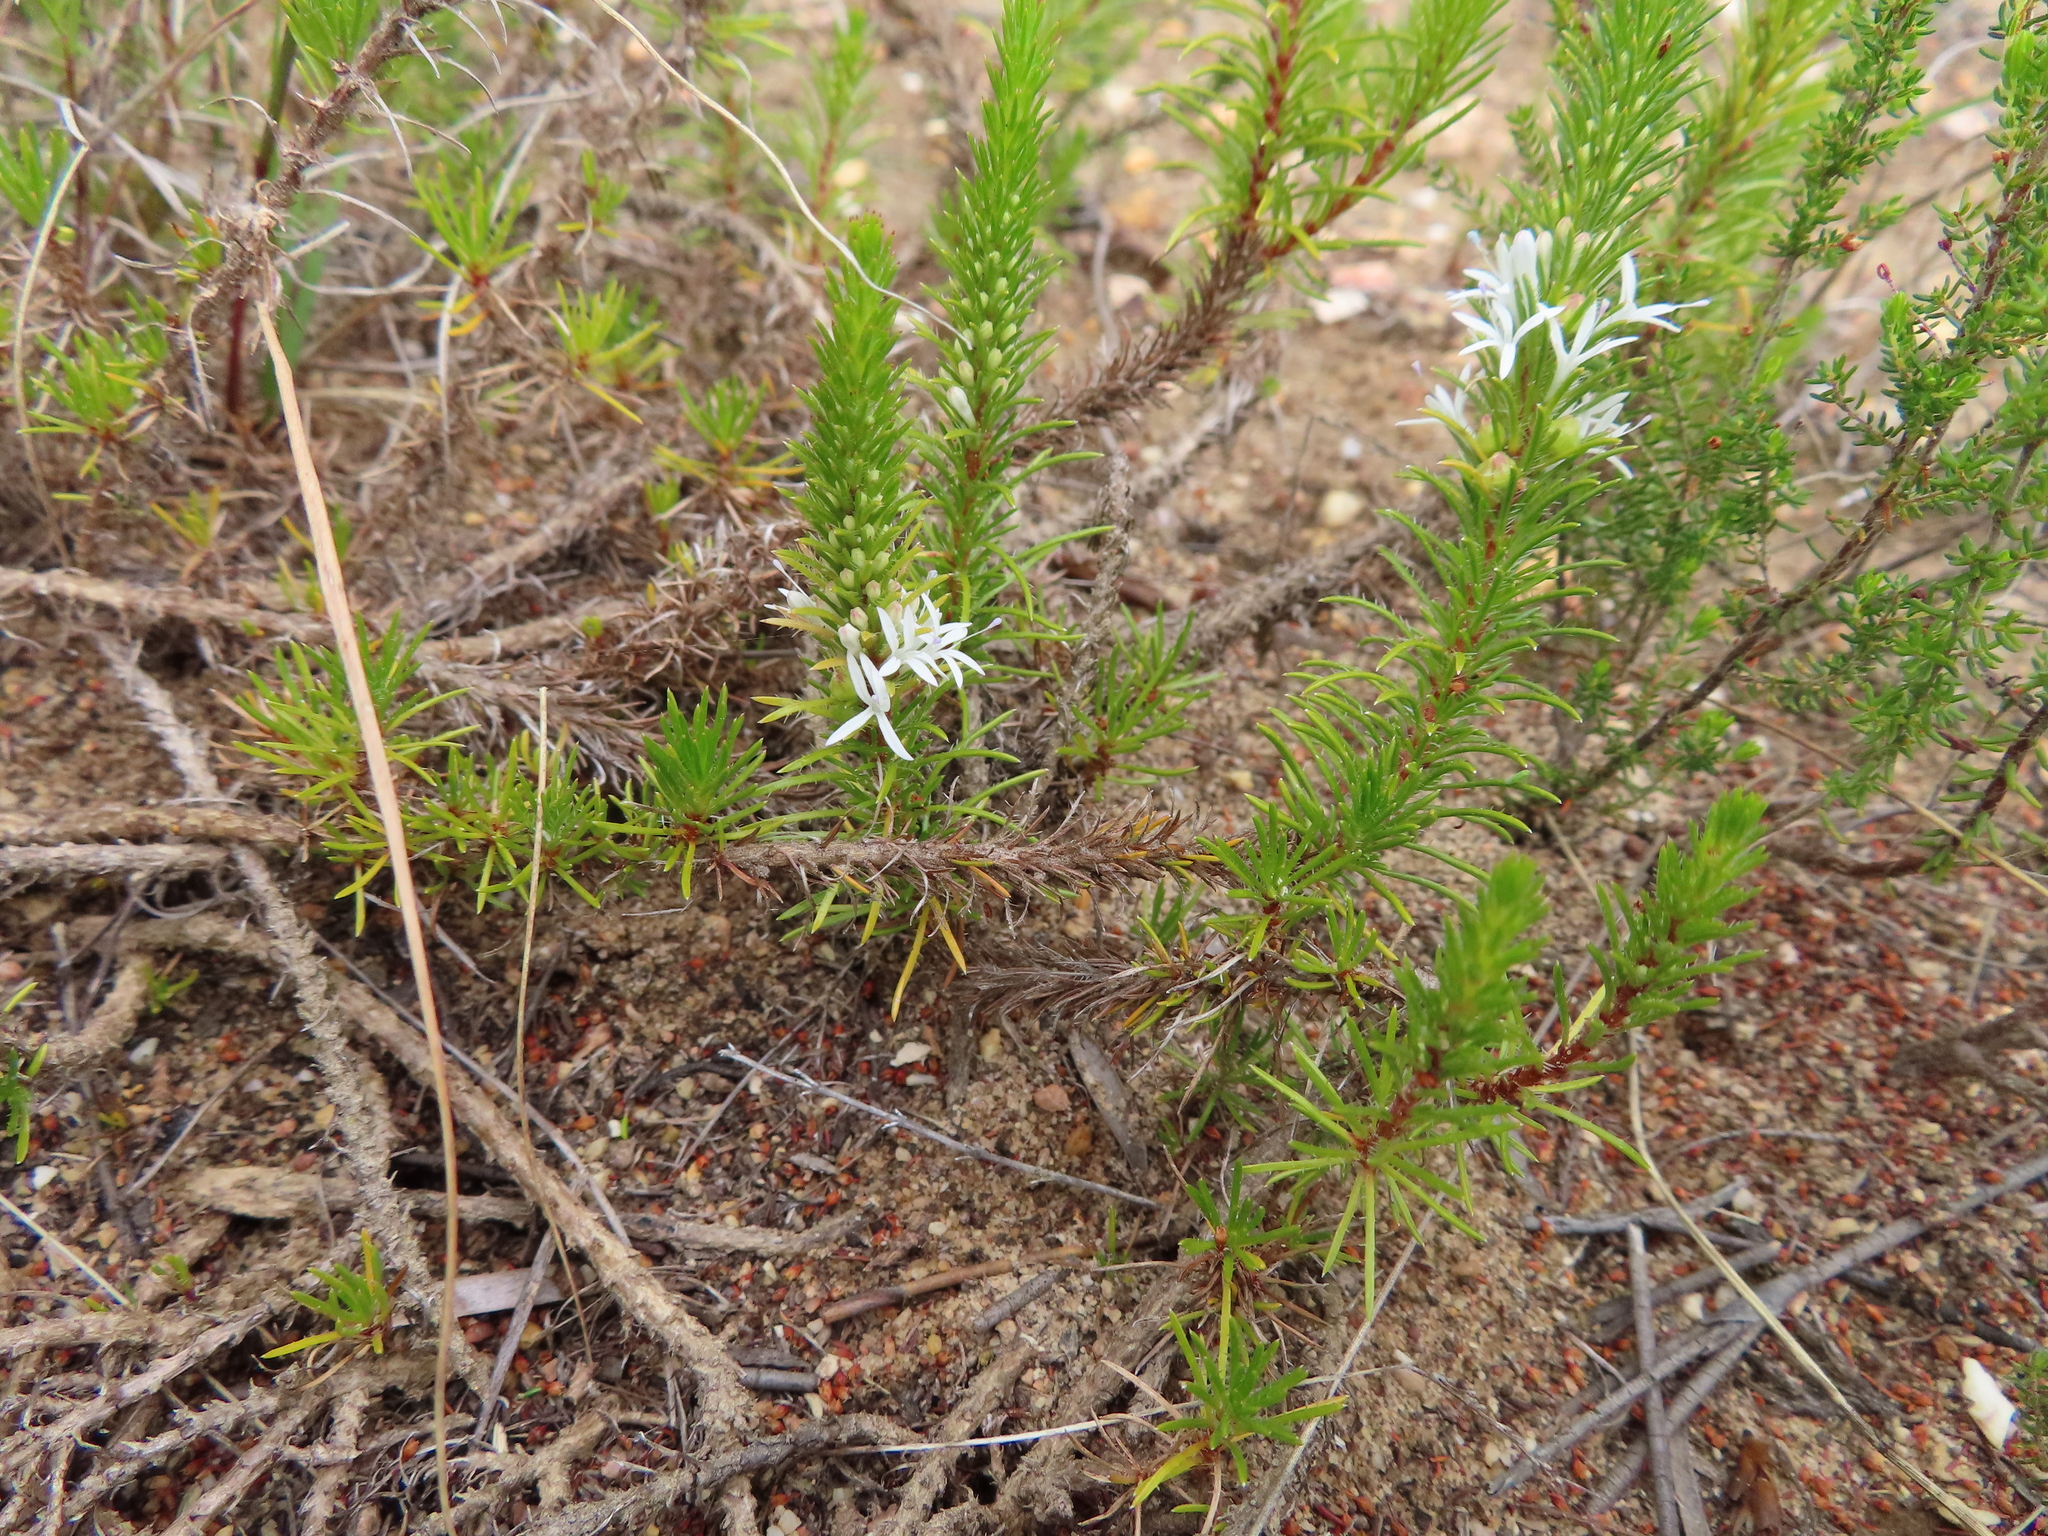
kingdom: Plantae
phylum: Tracheophyta
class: Magnoliopsida
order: Asterales
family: Campanulaceae
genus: Merciera
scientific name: Merciera leptoloba
